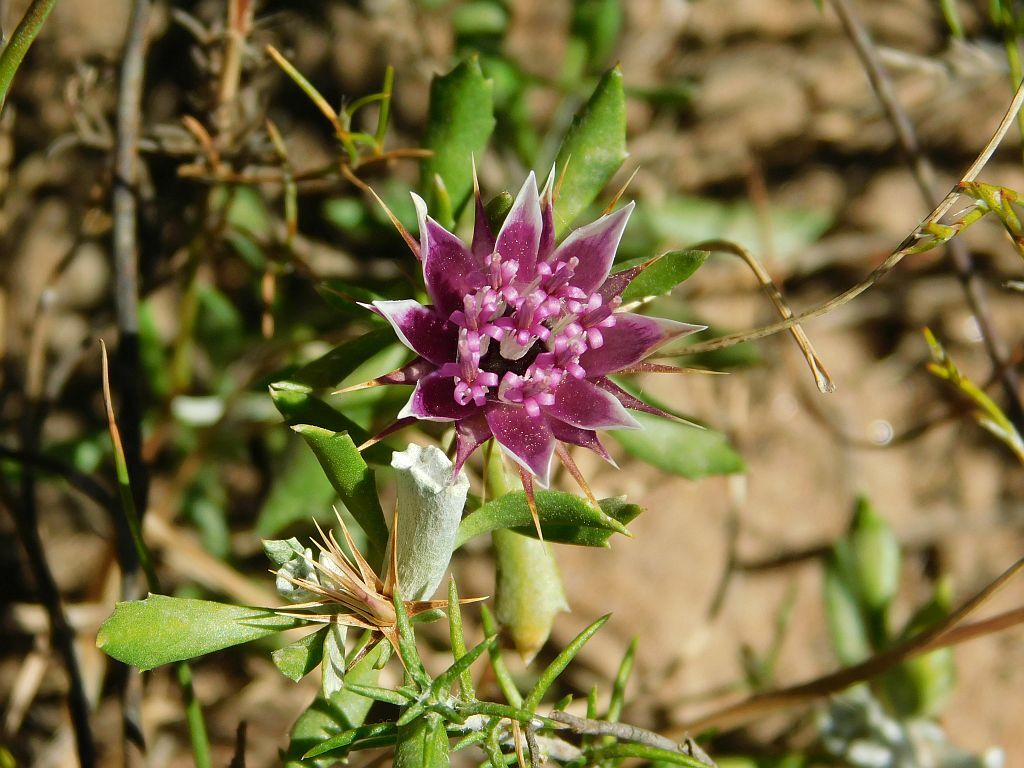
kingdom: Plantae
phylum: Tracheophyta
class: Magnoliopsida
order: Asterales
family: Asteraceae
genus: Macledium
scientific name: Macledium spinosum
